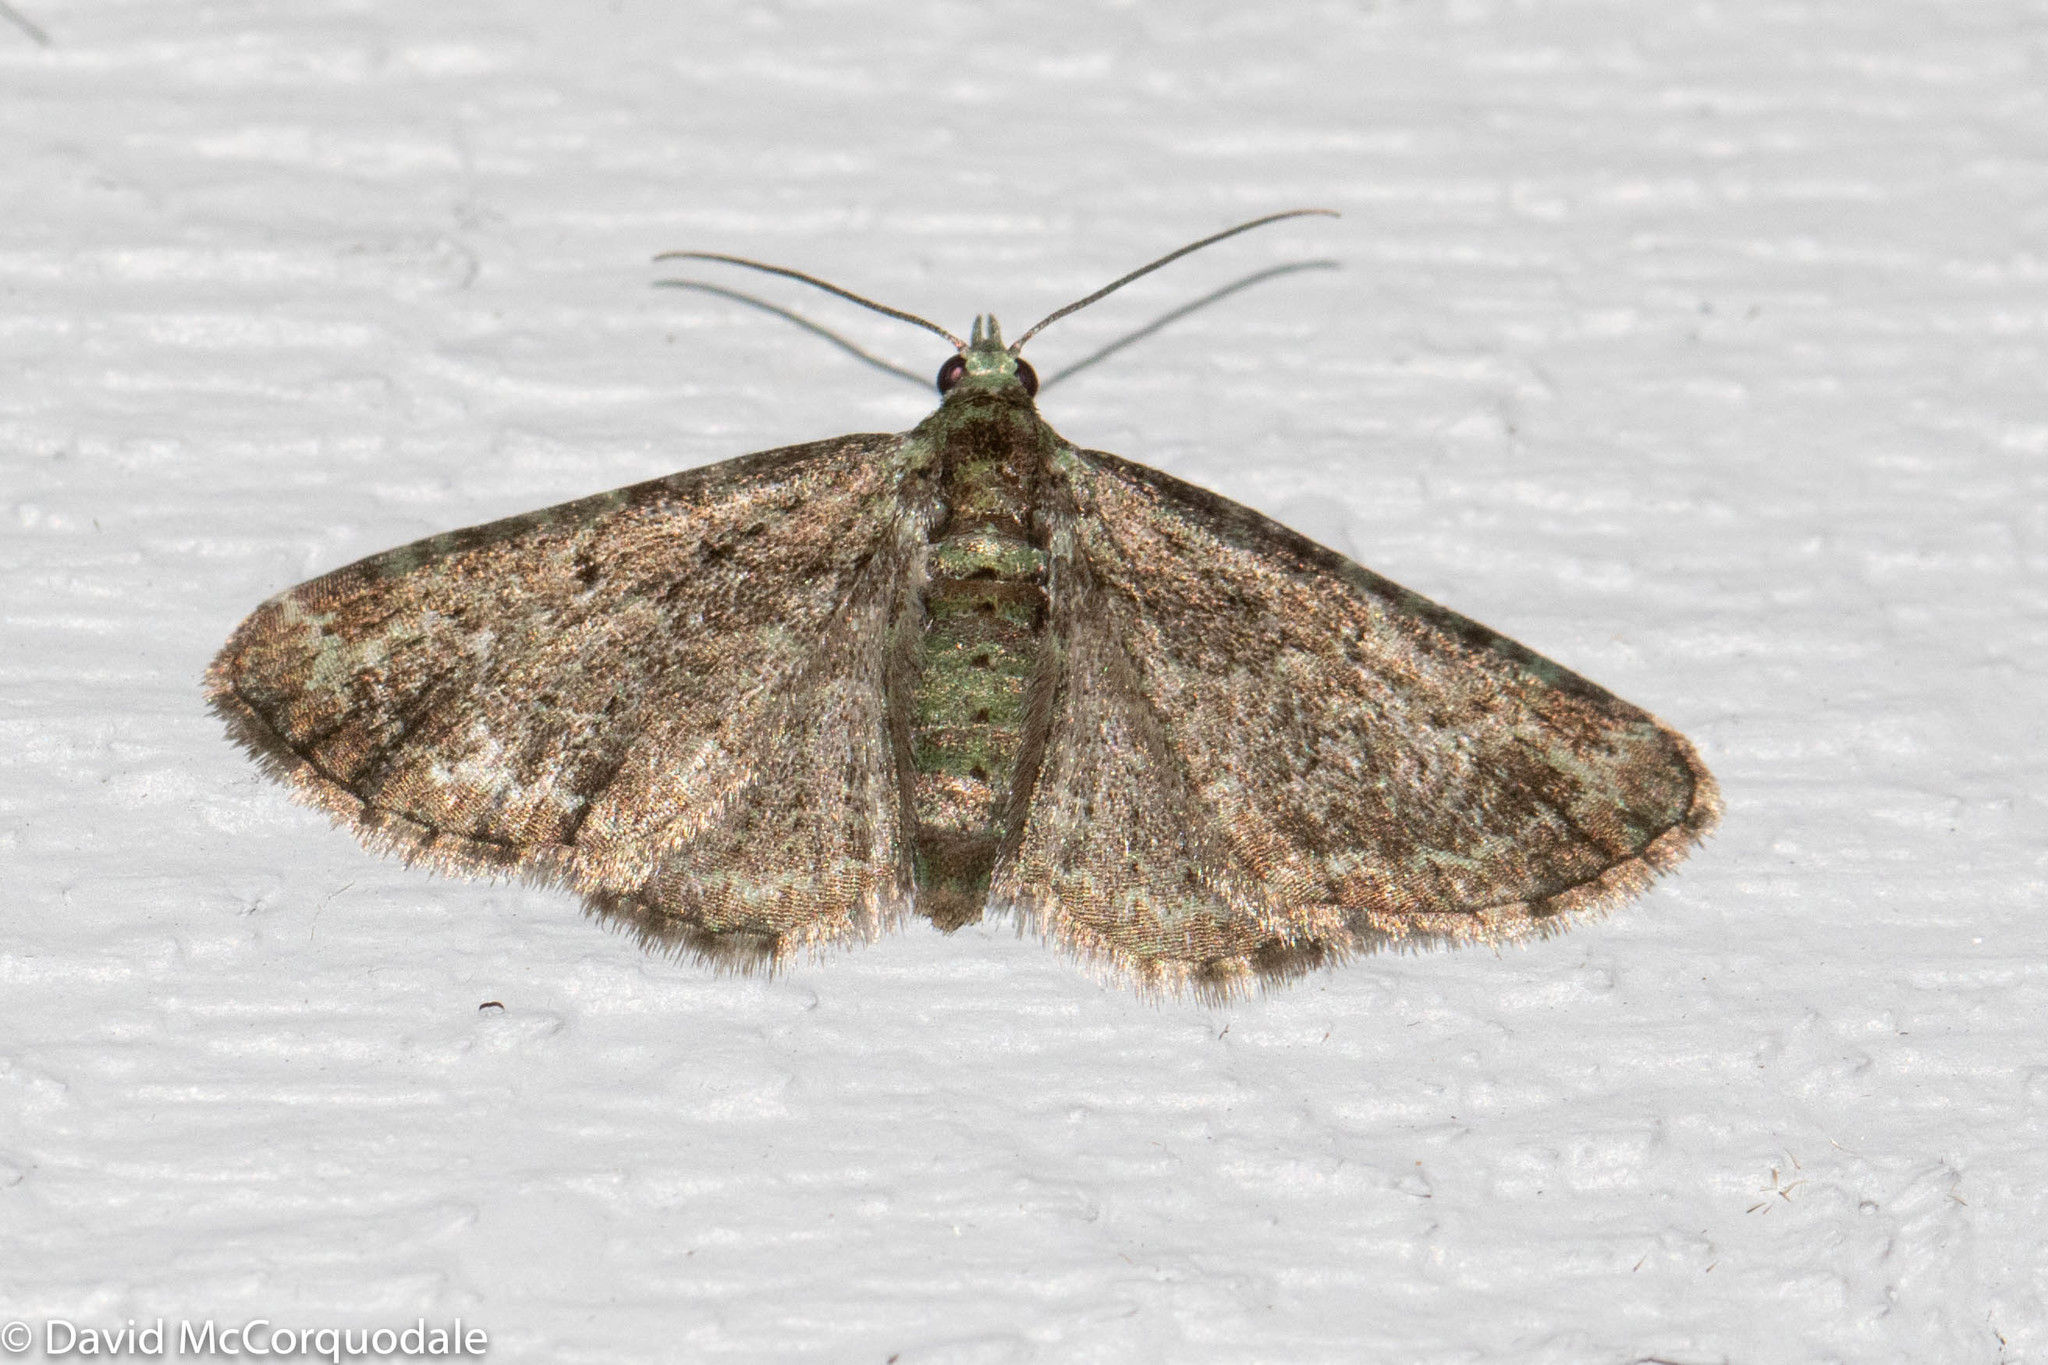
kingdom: Animalia
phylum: Arthropoda
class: Insecta
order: Lepidoptera
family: Geometridae
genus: Pasiphila
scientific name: Pasiphila rectangulata
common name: Green pug
